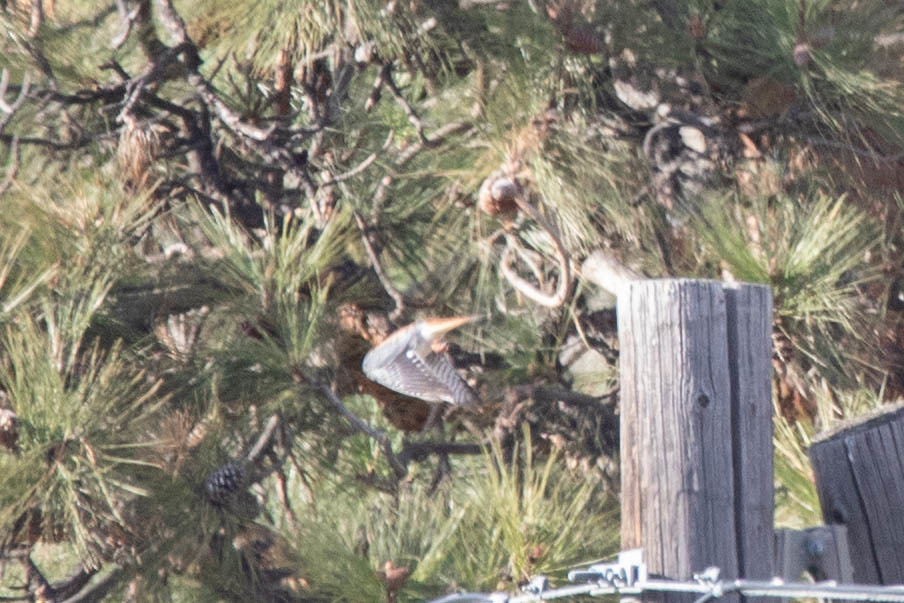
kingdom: Animalia
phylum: Chordata
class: Aves
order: Falconiformes
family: Falconidae
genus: Falco
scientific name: Falco sparverius
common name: American kestrel
